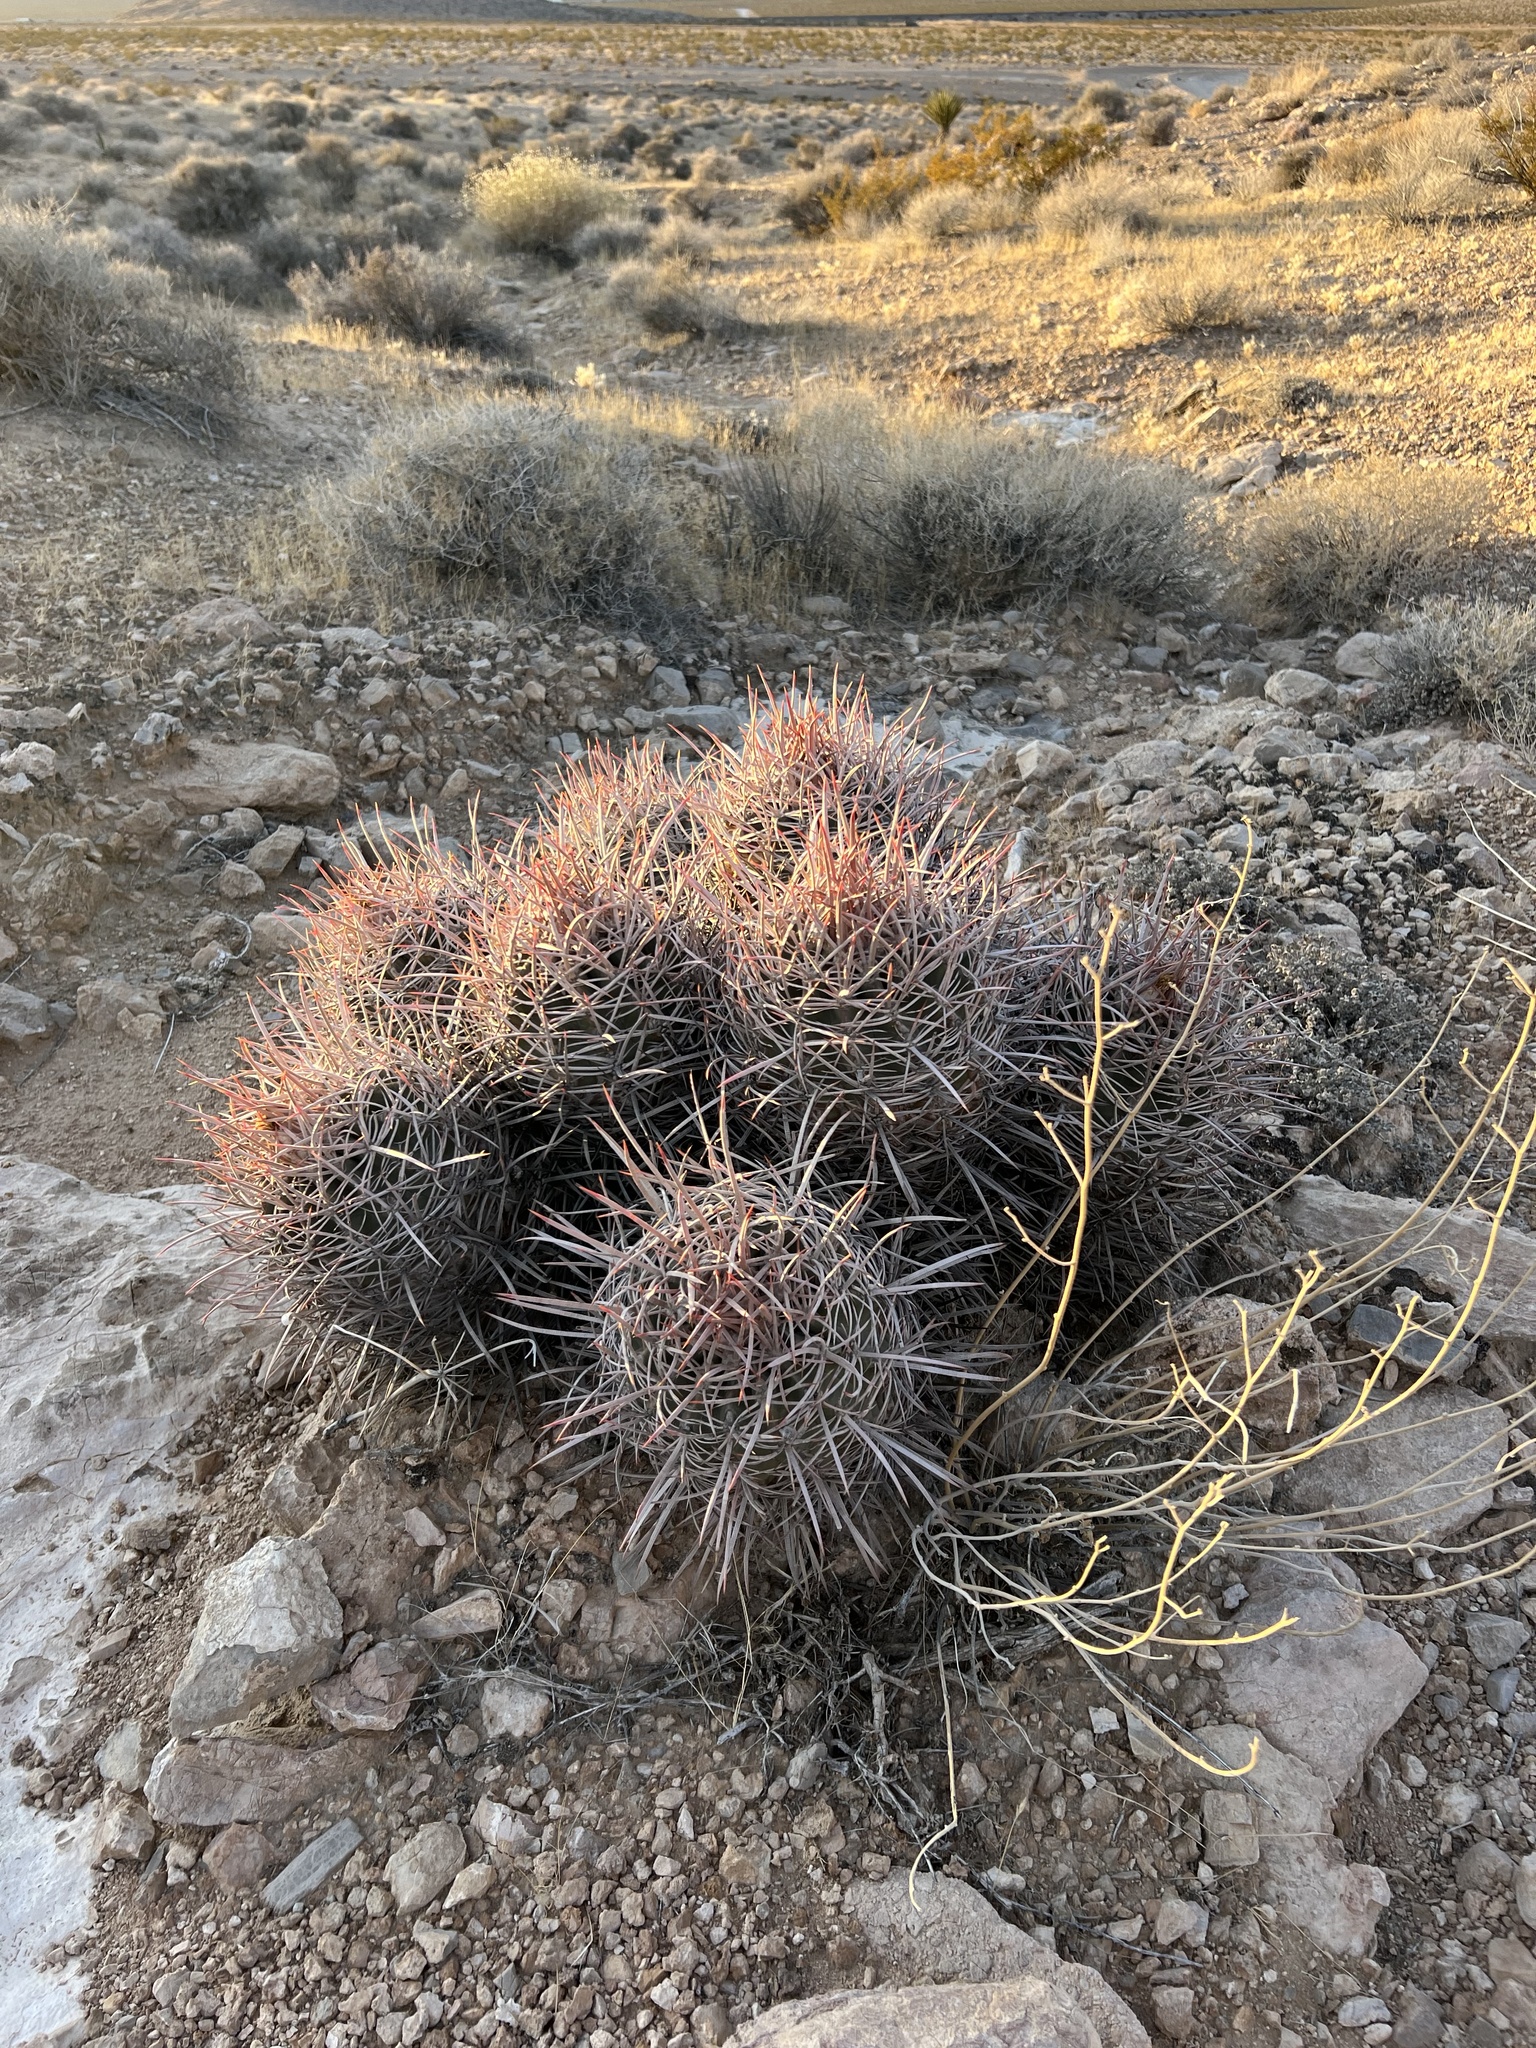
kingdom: Plantae
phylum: Tracheophyta
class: Magnoliopsida
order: Caryophyllales
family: Cactaceae
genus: Echinocactus
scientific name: Echinocactus polycephalus
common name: Cottontop cactus
